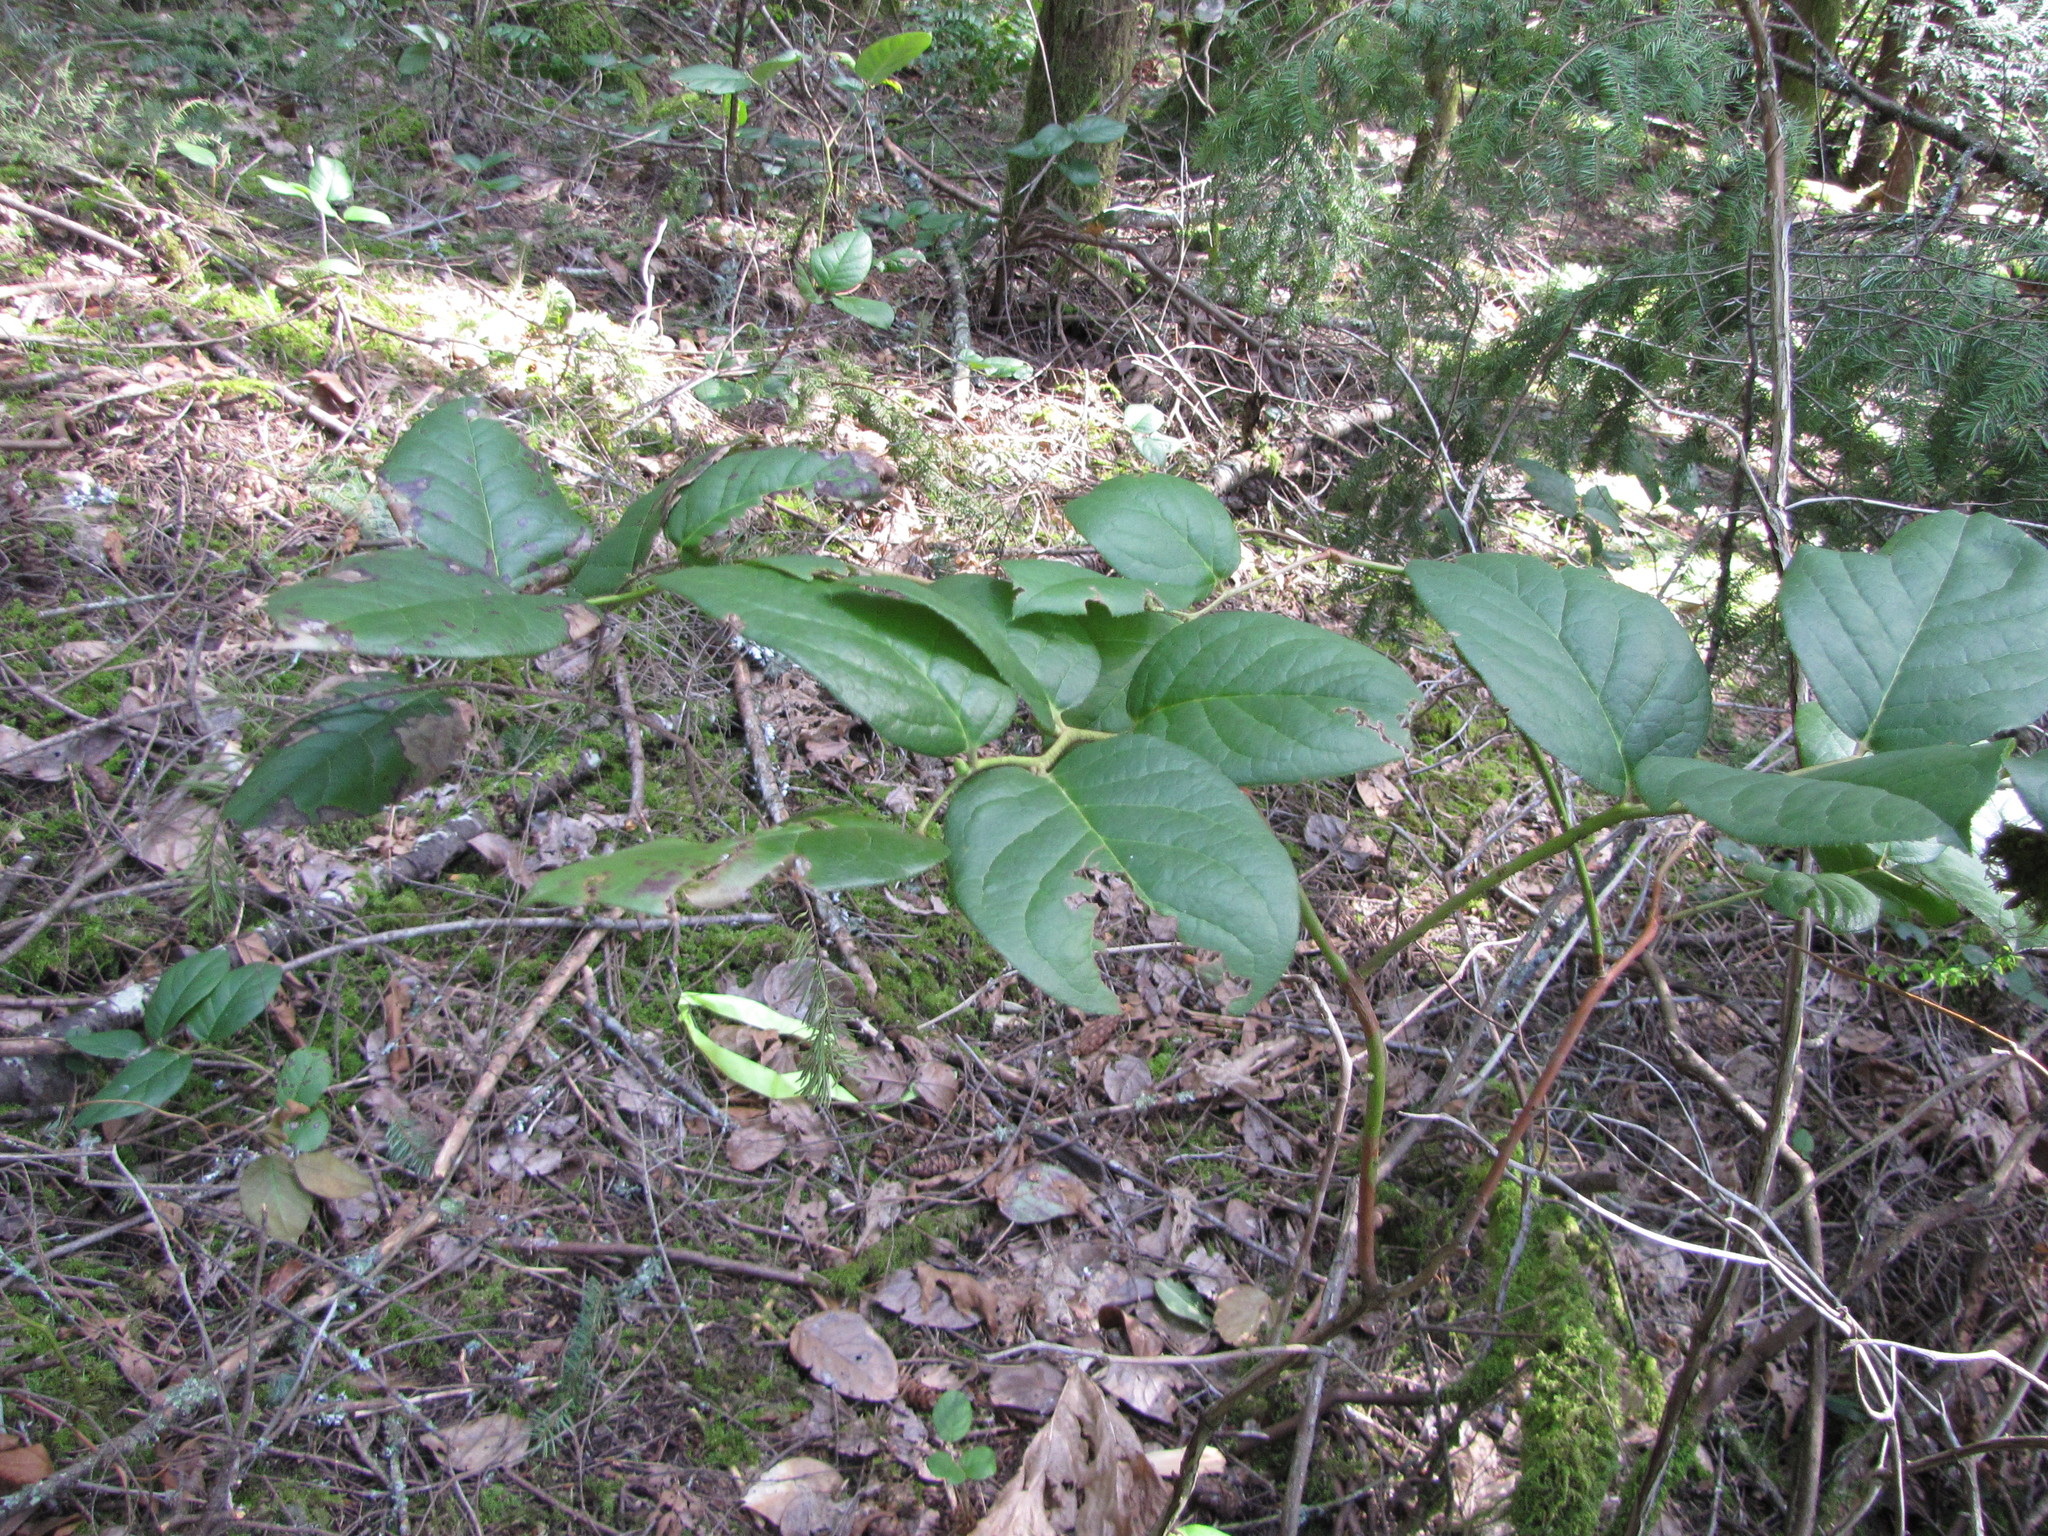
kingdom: Plantae
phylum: Tracheophyta
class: Magnoliopsida
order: Ericales
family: Ericaceae
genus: Gaultheria
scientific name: Gaultheria shallon
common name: Shallon
